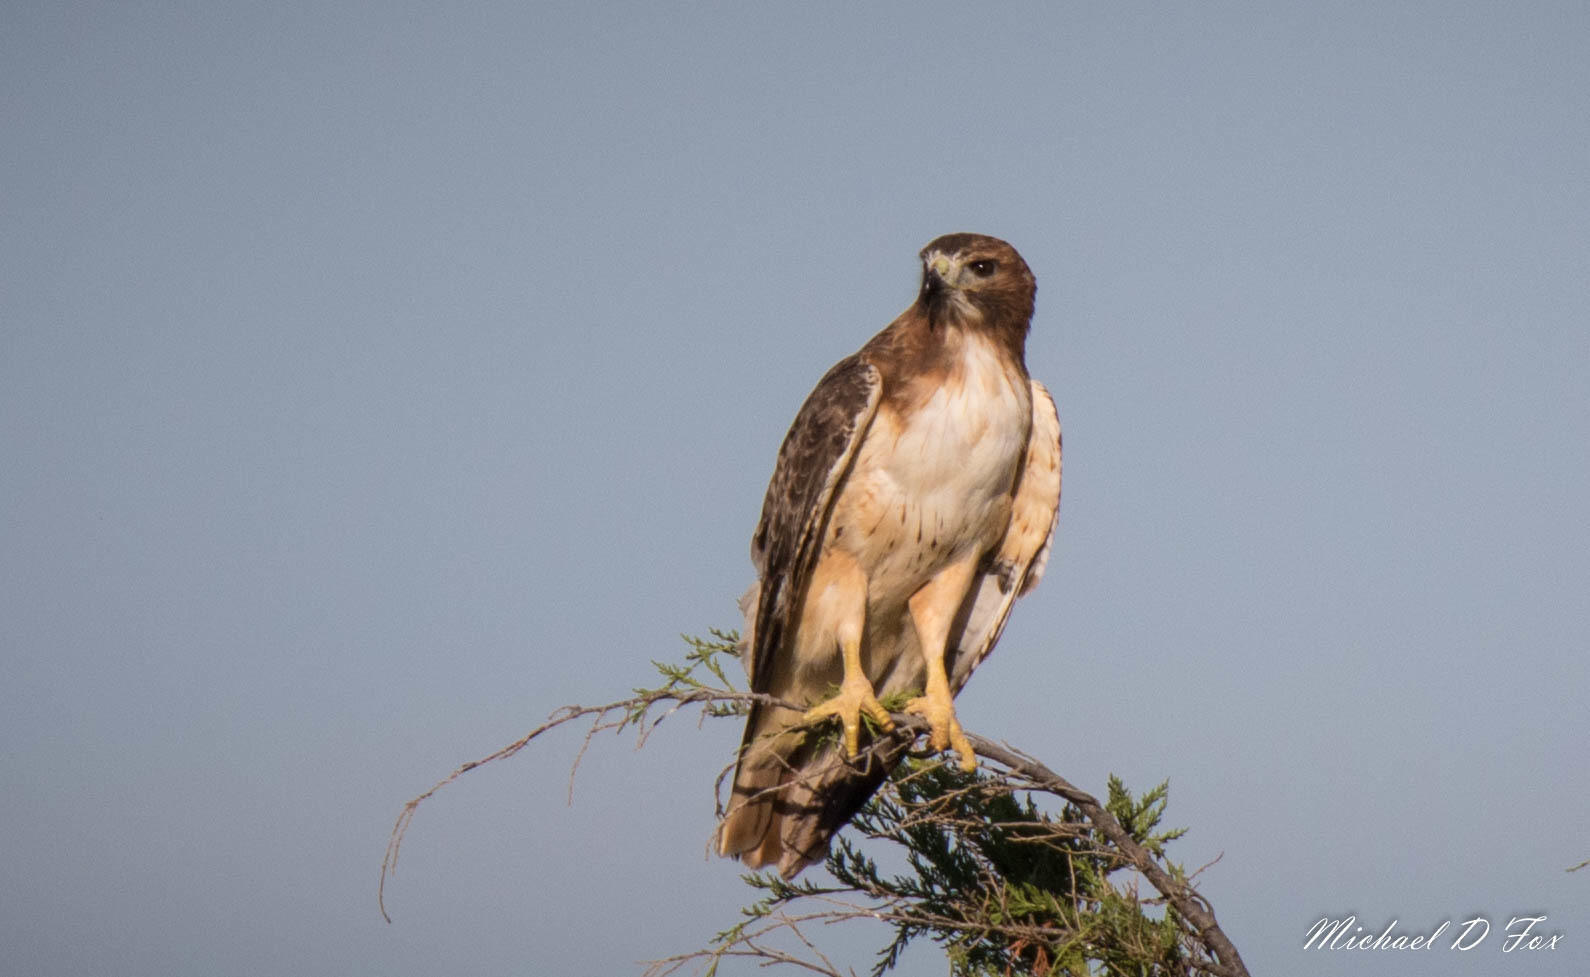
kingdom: Animalia
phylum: Chordata
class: Aves
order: Accipitriformes
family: Accipitridae
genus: Buteo
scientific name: Buteo jamaicensis
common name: Red-tailed hawk
